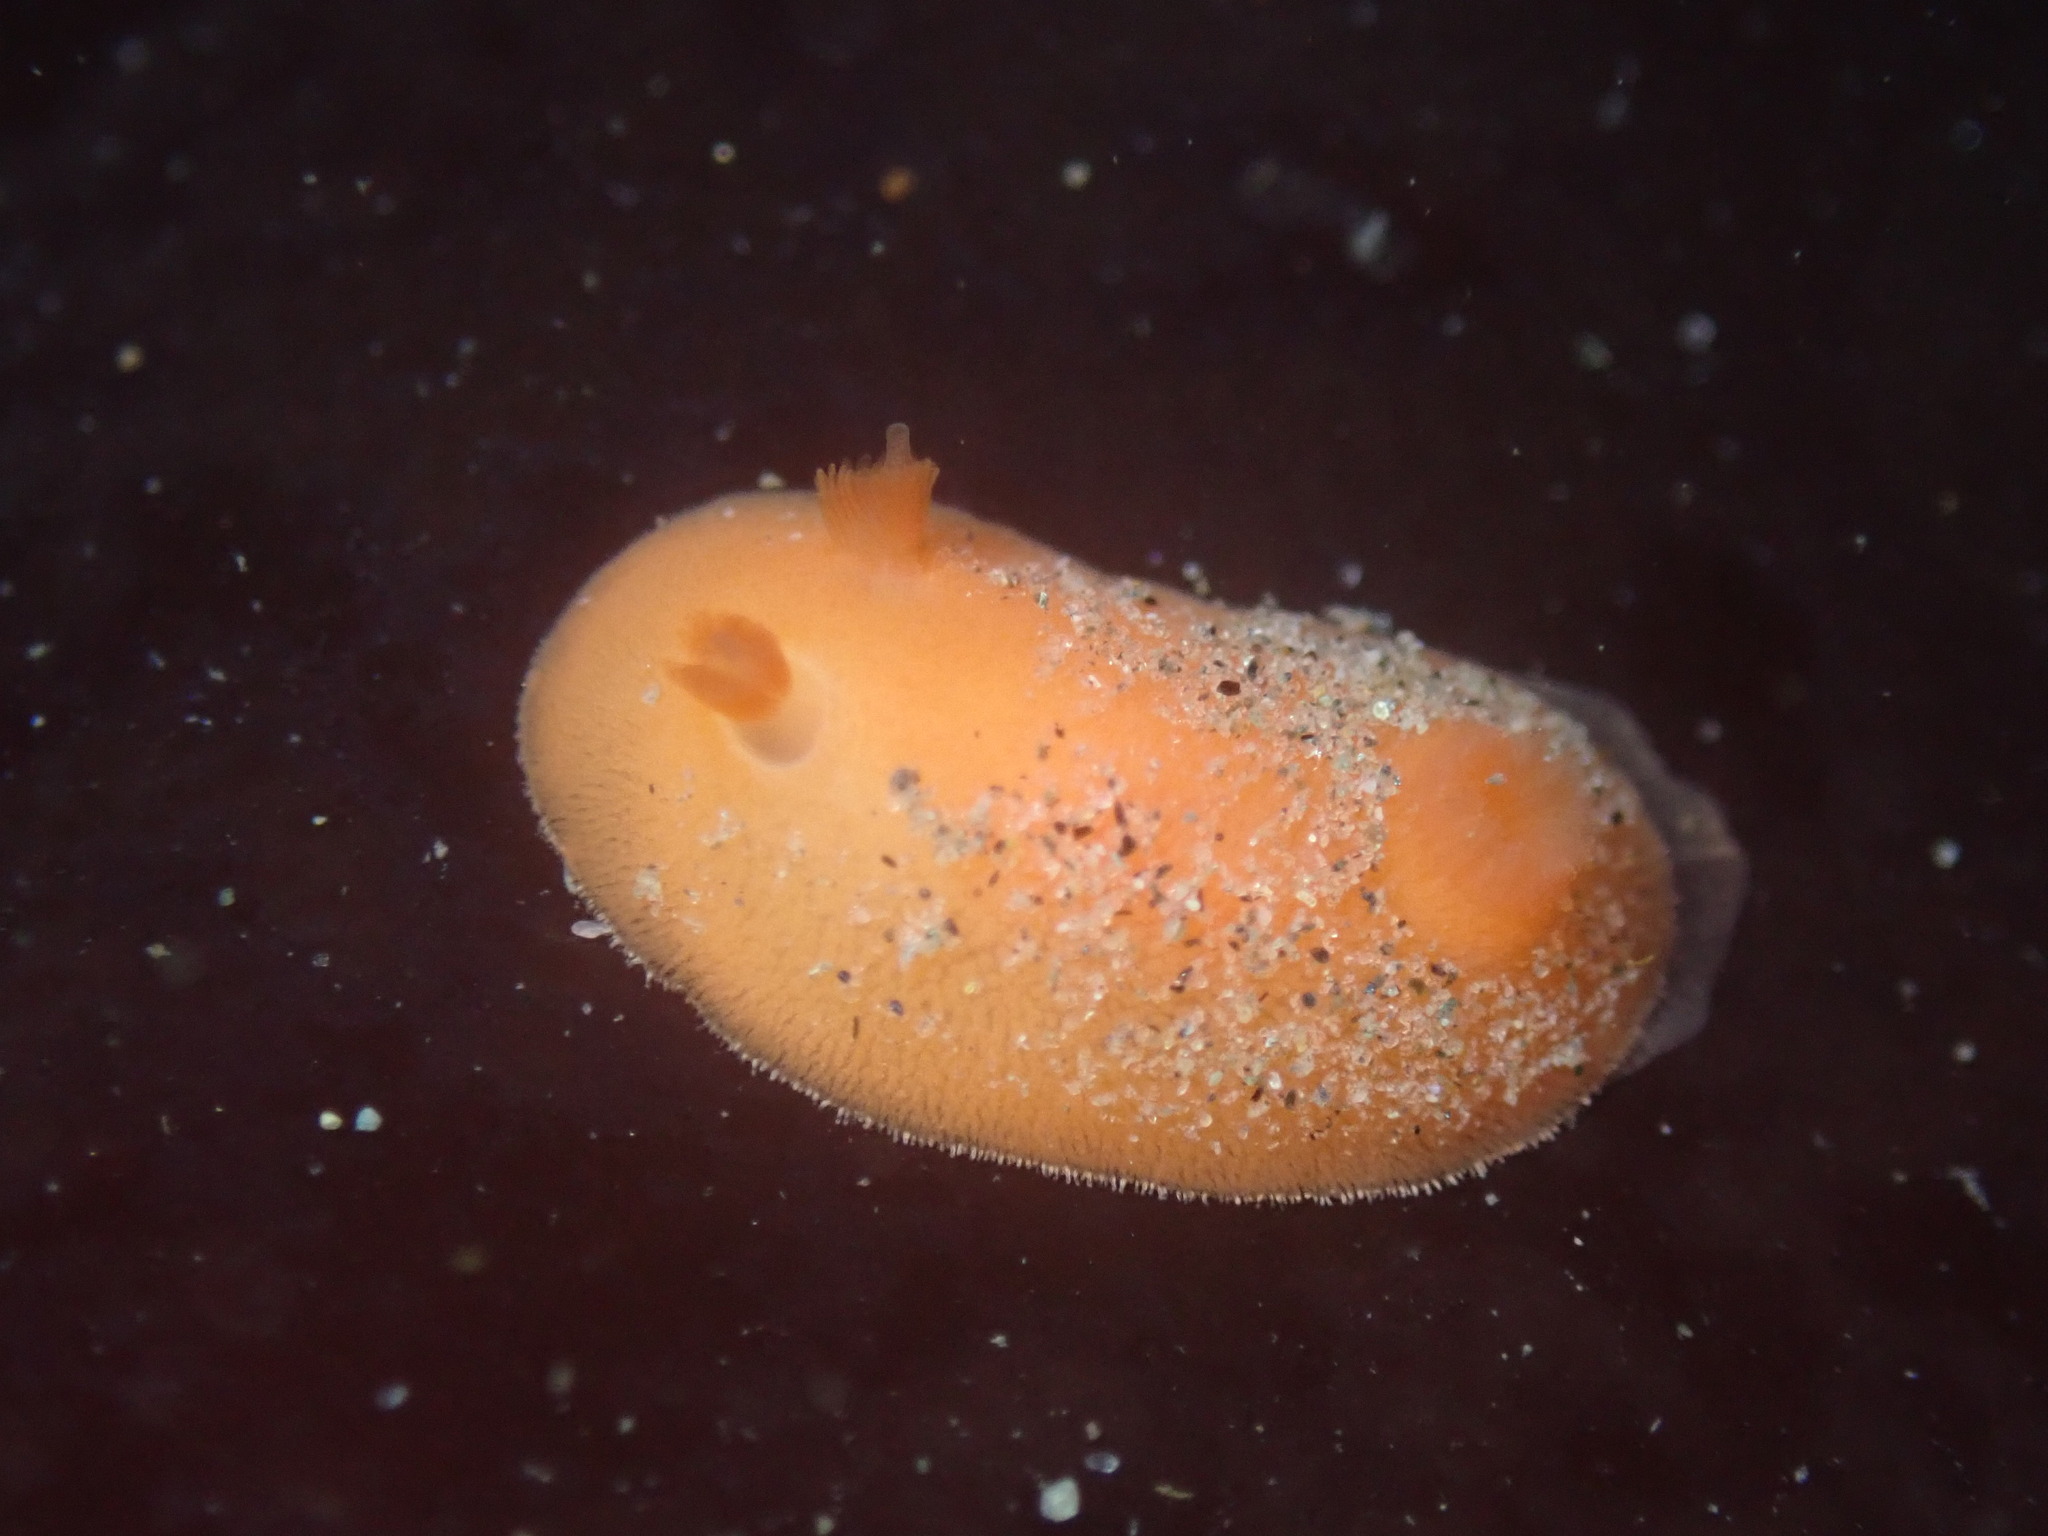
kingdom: Animalia
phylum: Mollusca
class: Gastropoda
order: Nudibranchia
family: Discodorididae
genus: Rostanga
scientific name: Rostanga pulchra
